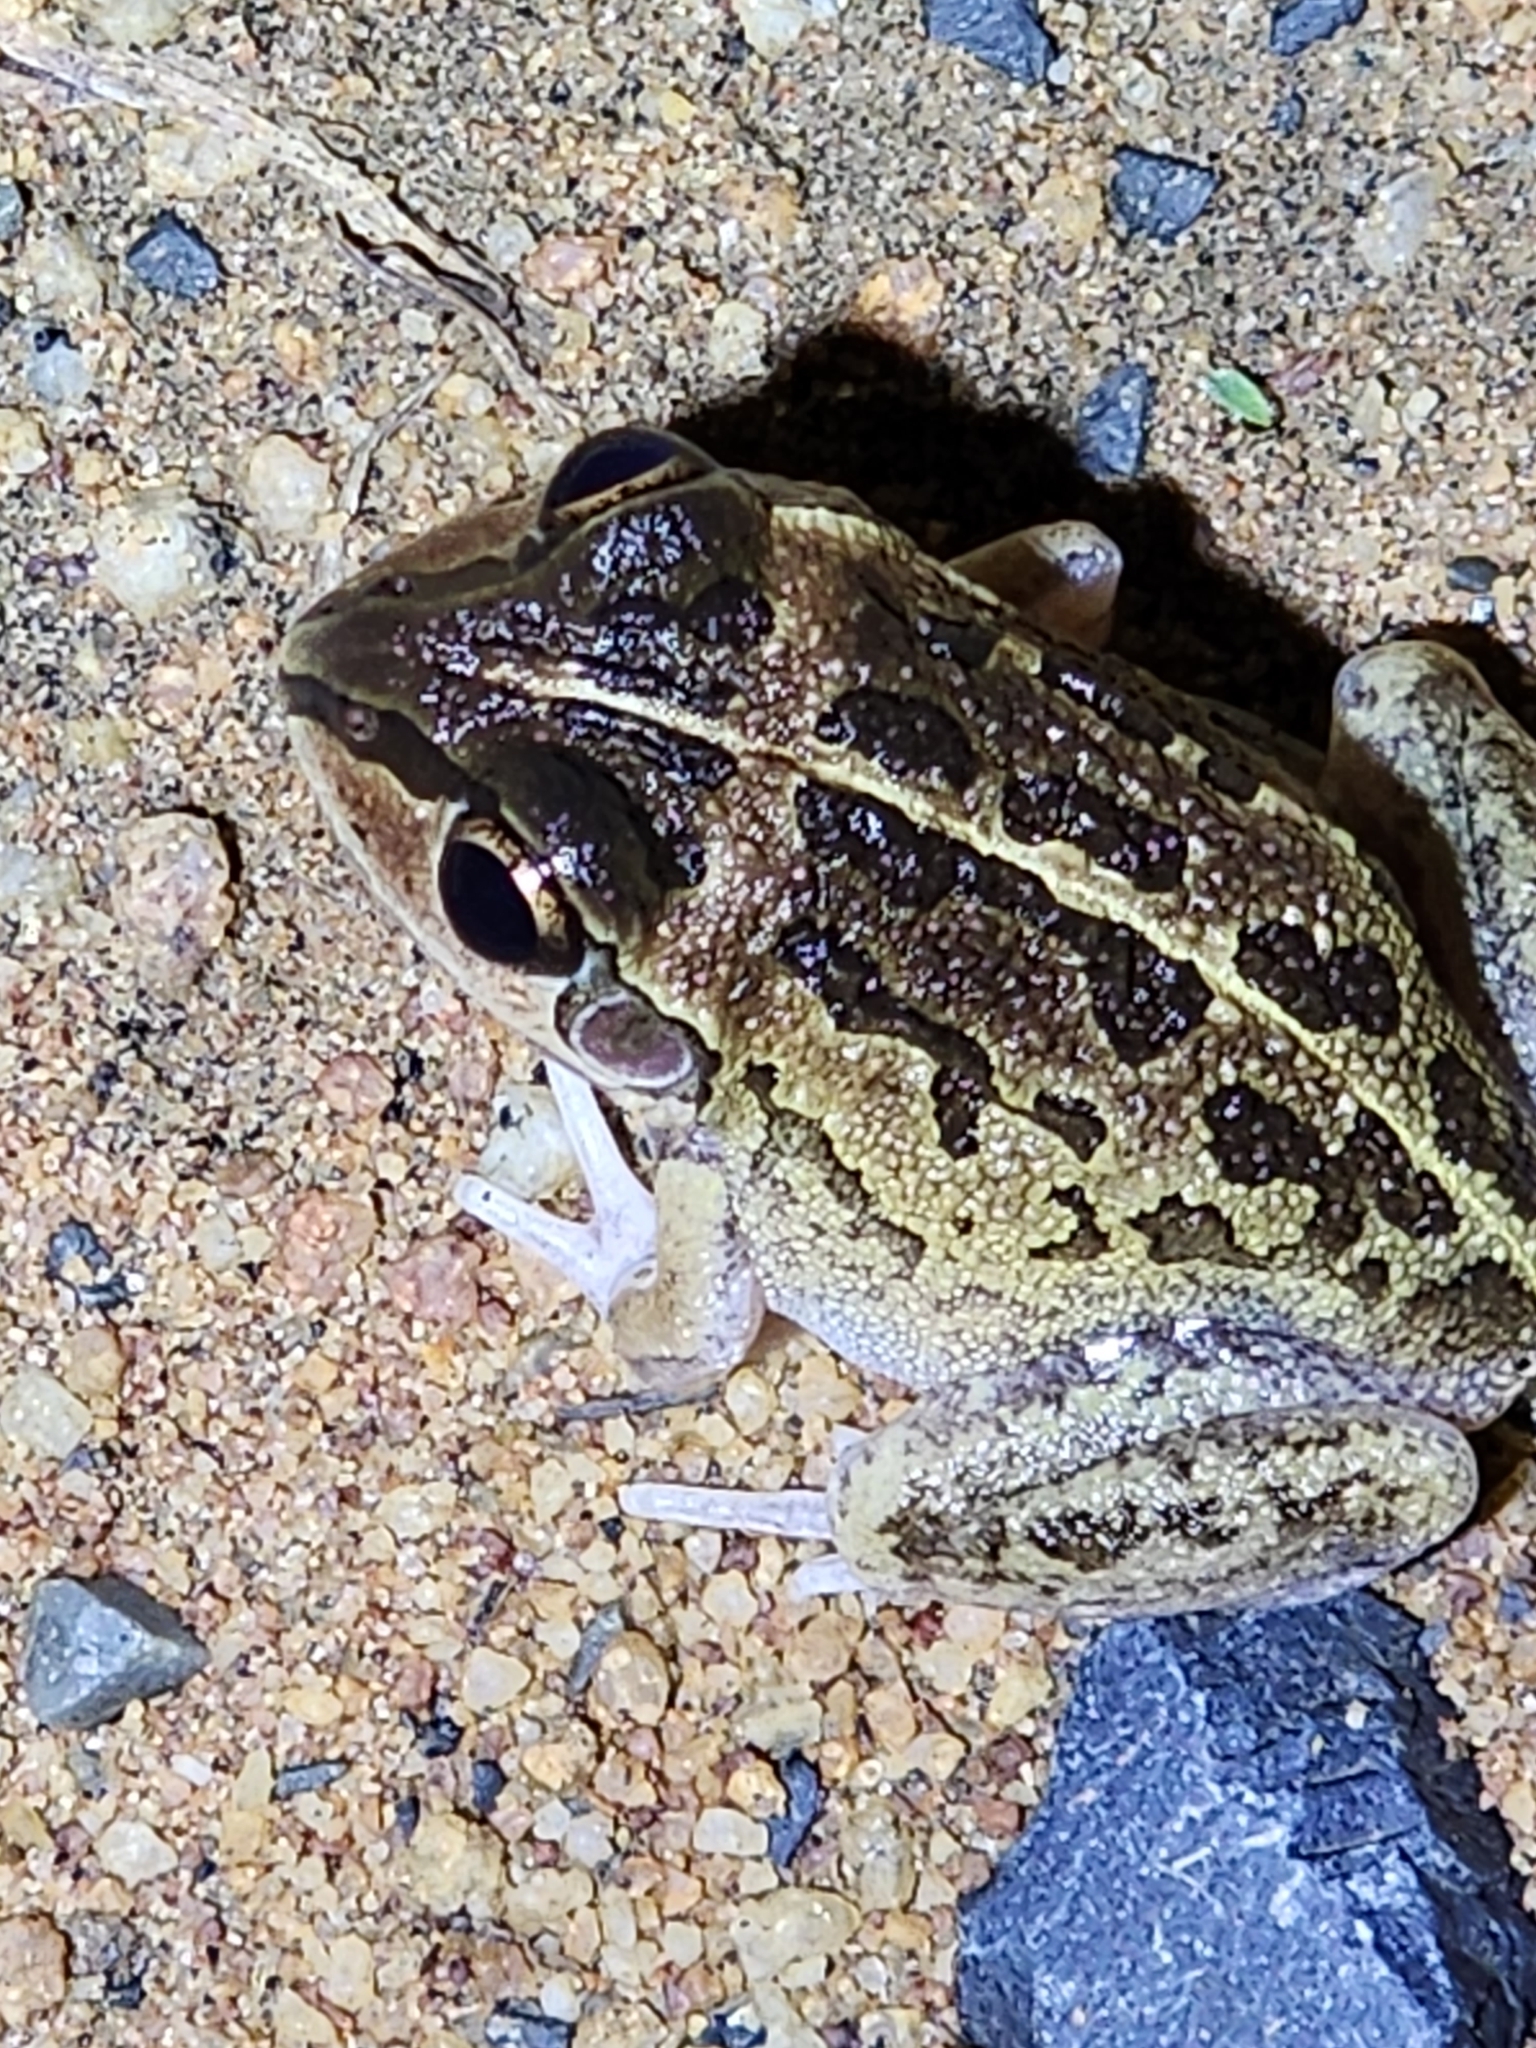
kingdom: Animalia
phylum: Chordata
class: Amphibia
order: Anura
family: Pelodryadidae
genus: Ranoidea
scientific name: Ranoidea brevipes
